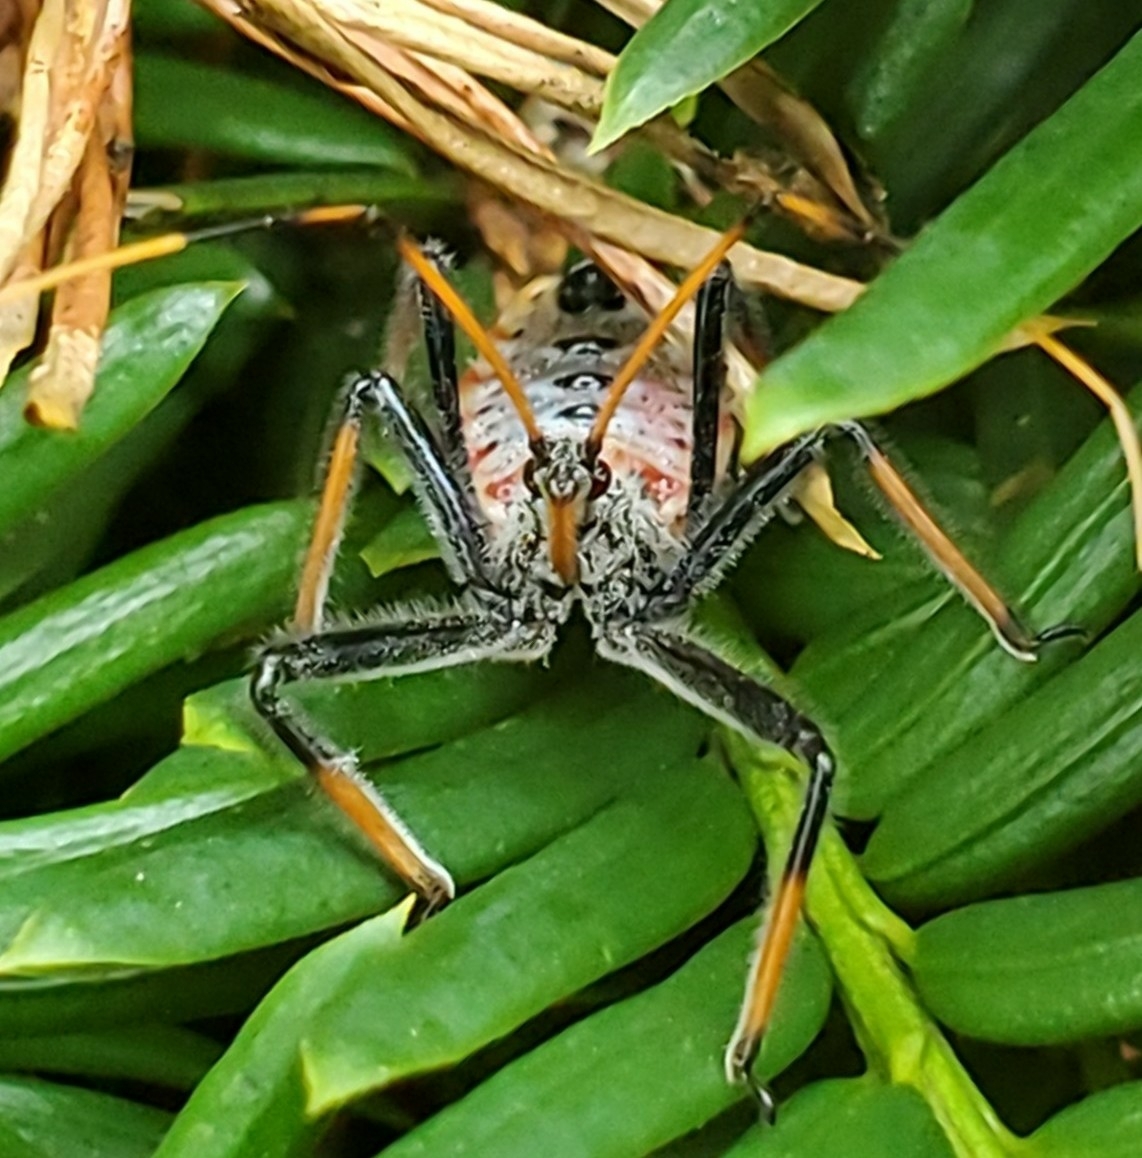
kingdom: Animalia
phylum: Arthropoda
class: Insecta
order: Hemiptera
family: Reduviidae
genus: Arilus
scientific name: Arilus cristatus
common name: North american wheel bug
